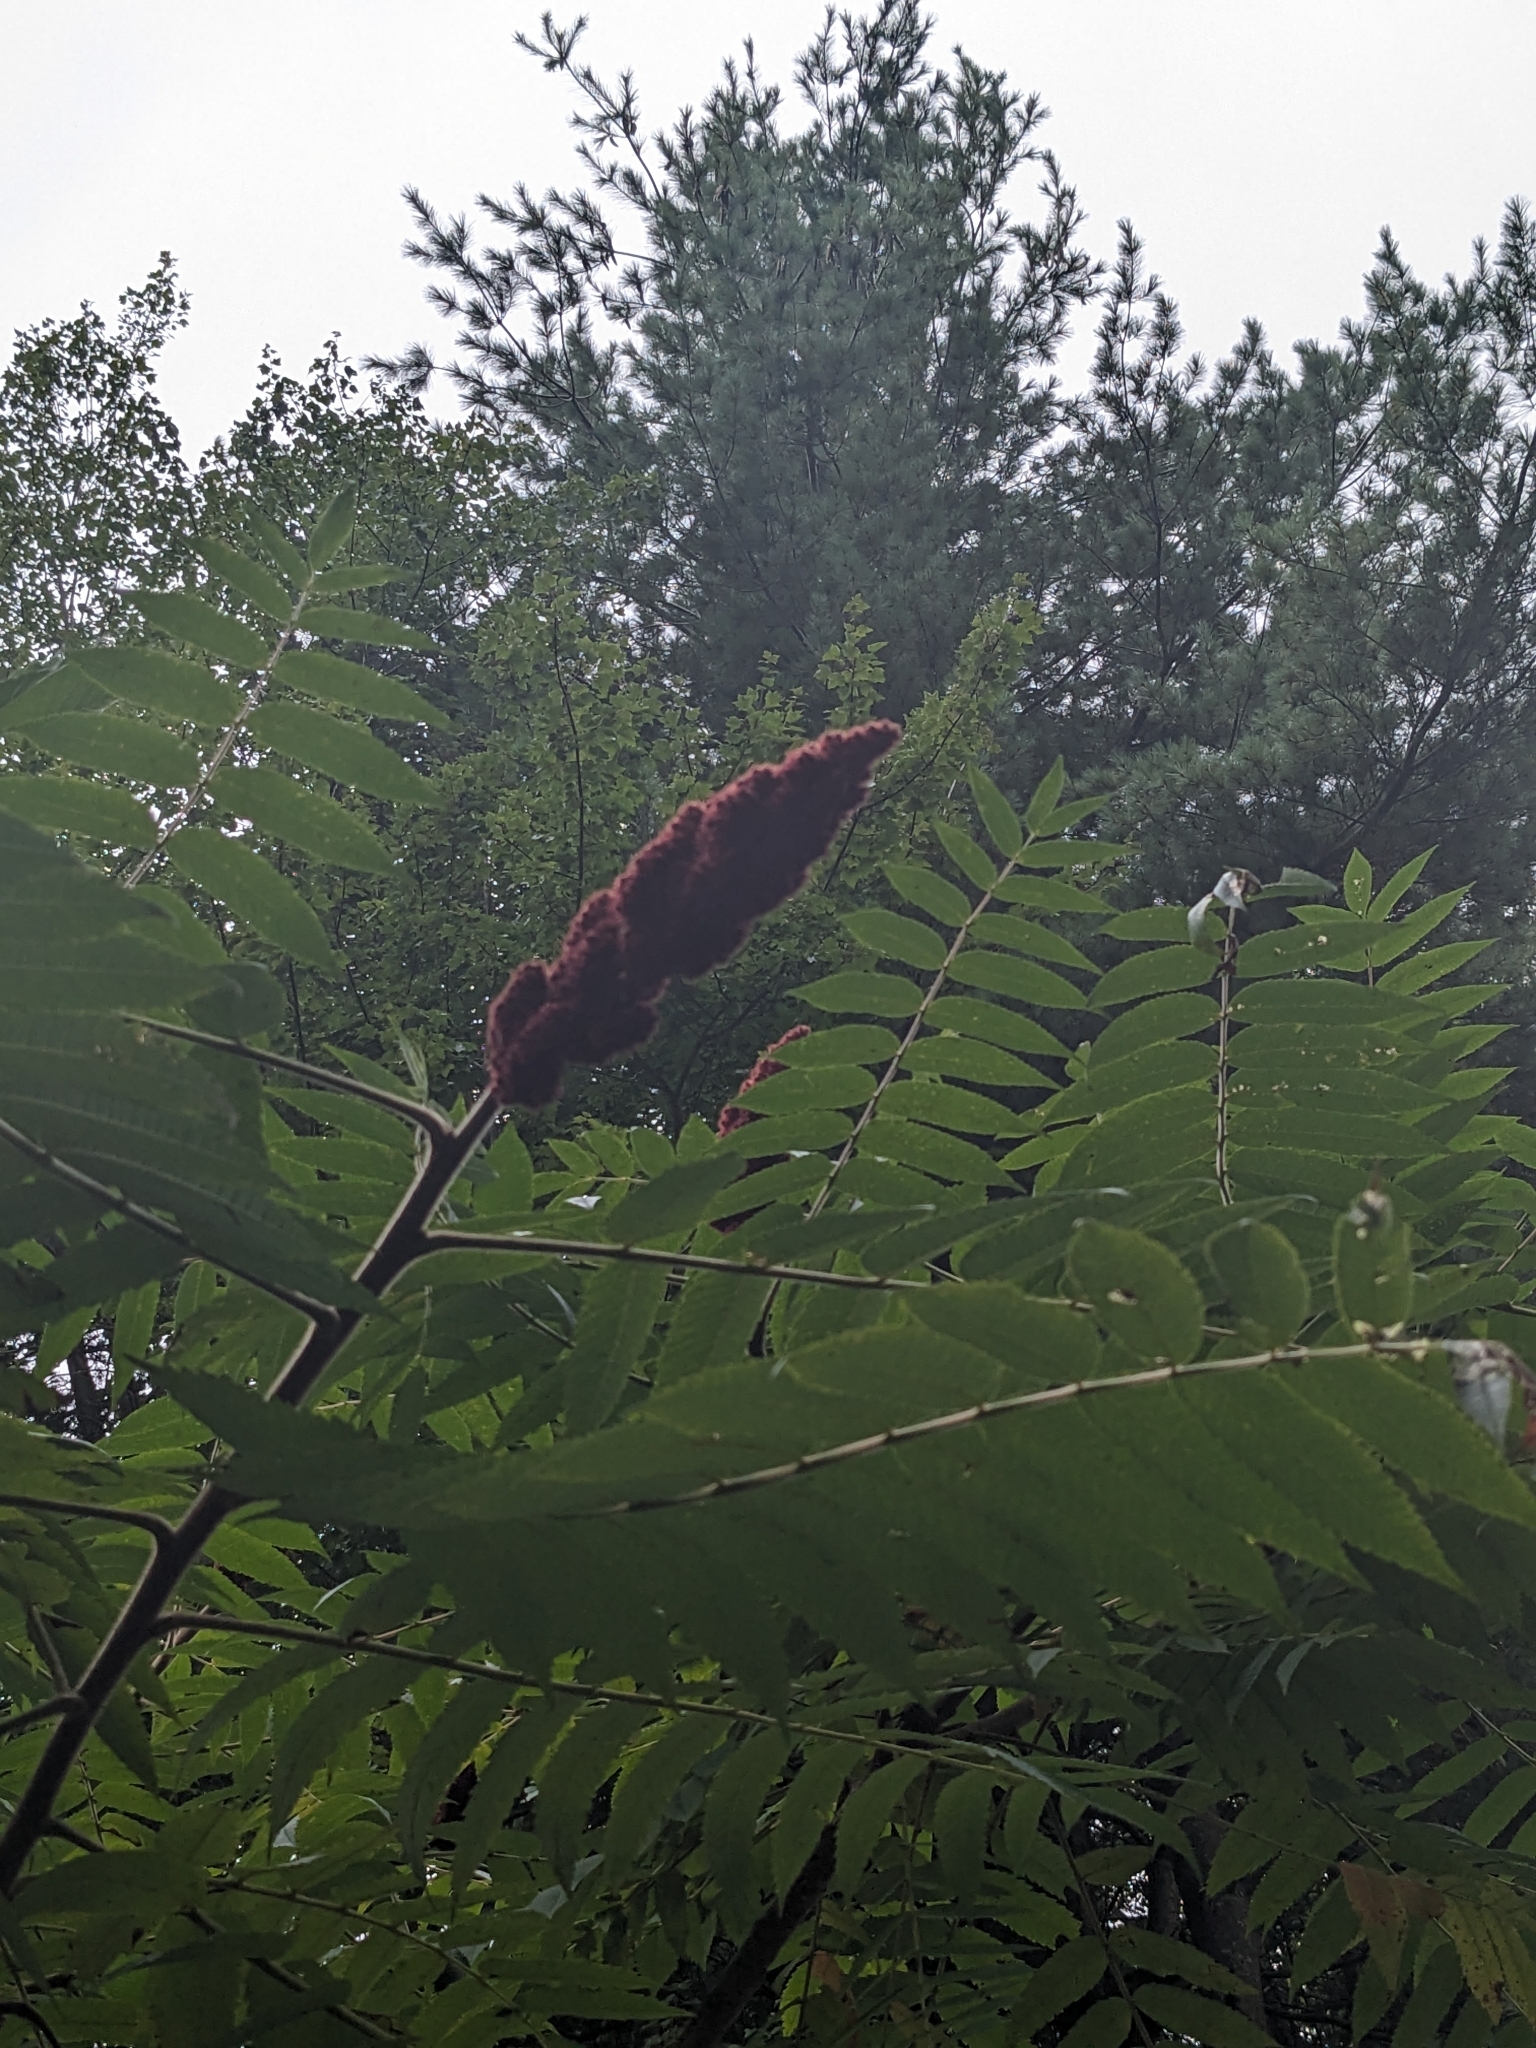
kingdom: Plantae
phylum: Tracheophyta
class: Magnoliopsida
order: Sapindales
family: Anacardiaceae
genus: Rhus
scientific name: Rhus typhina
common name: Staghorn sumac
